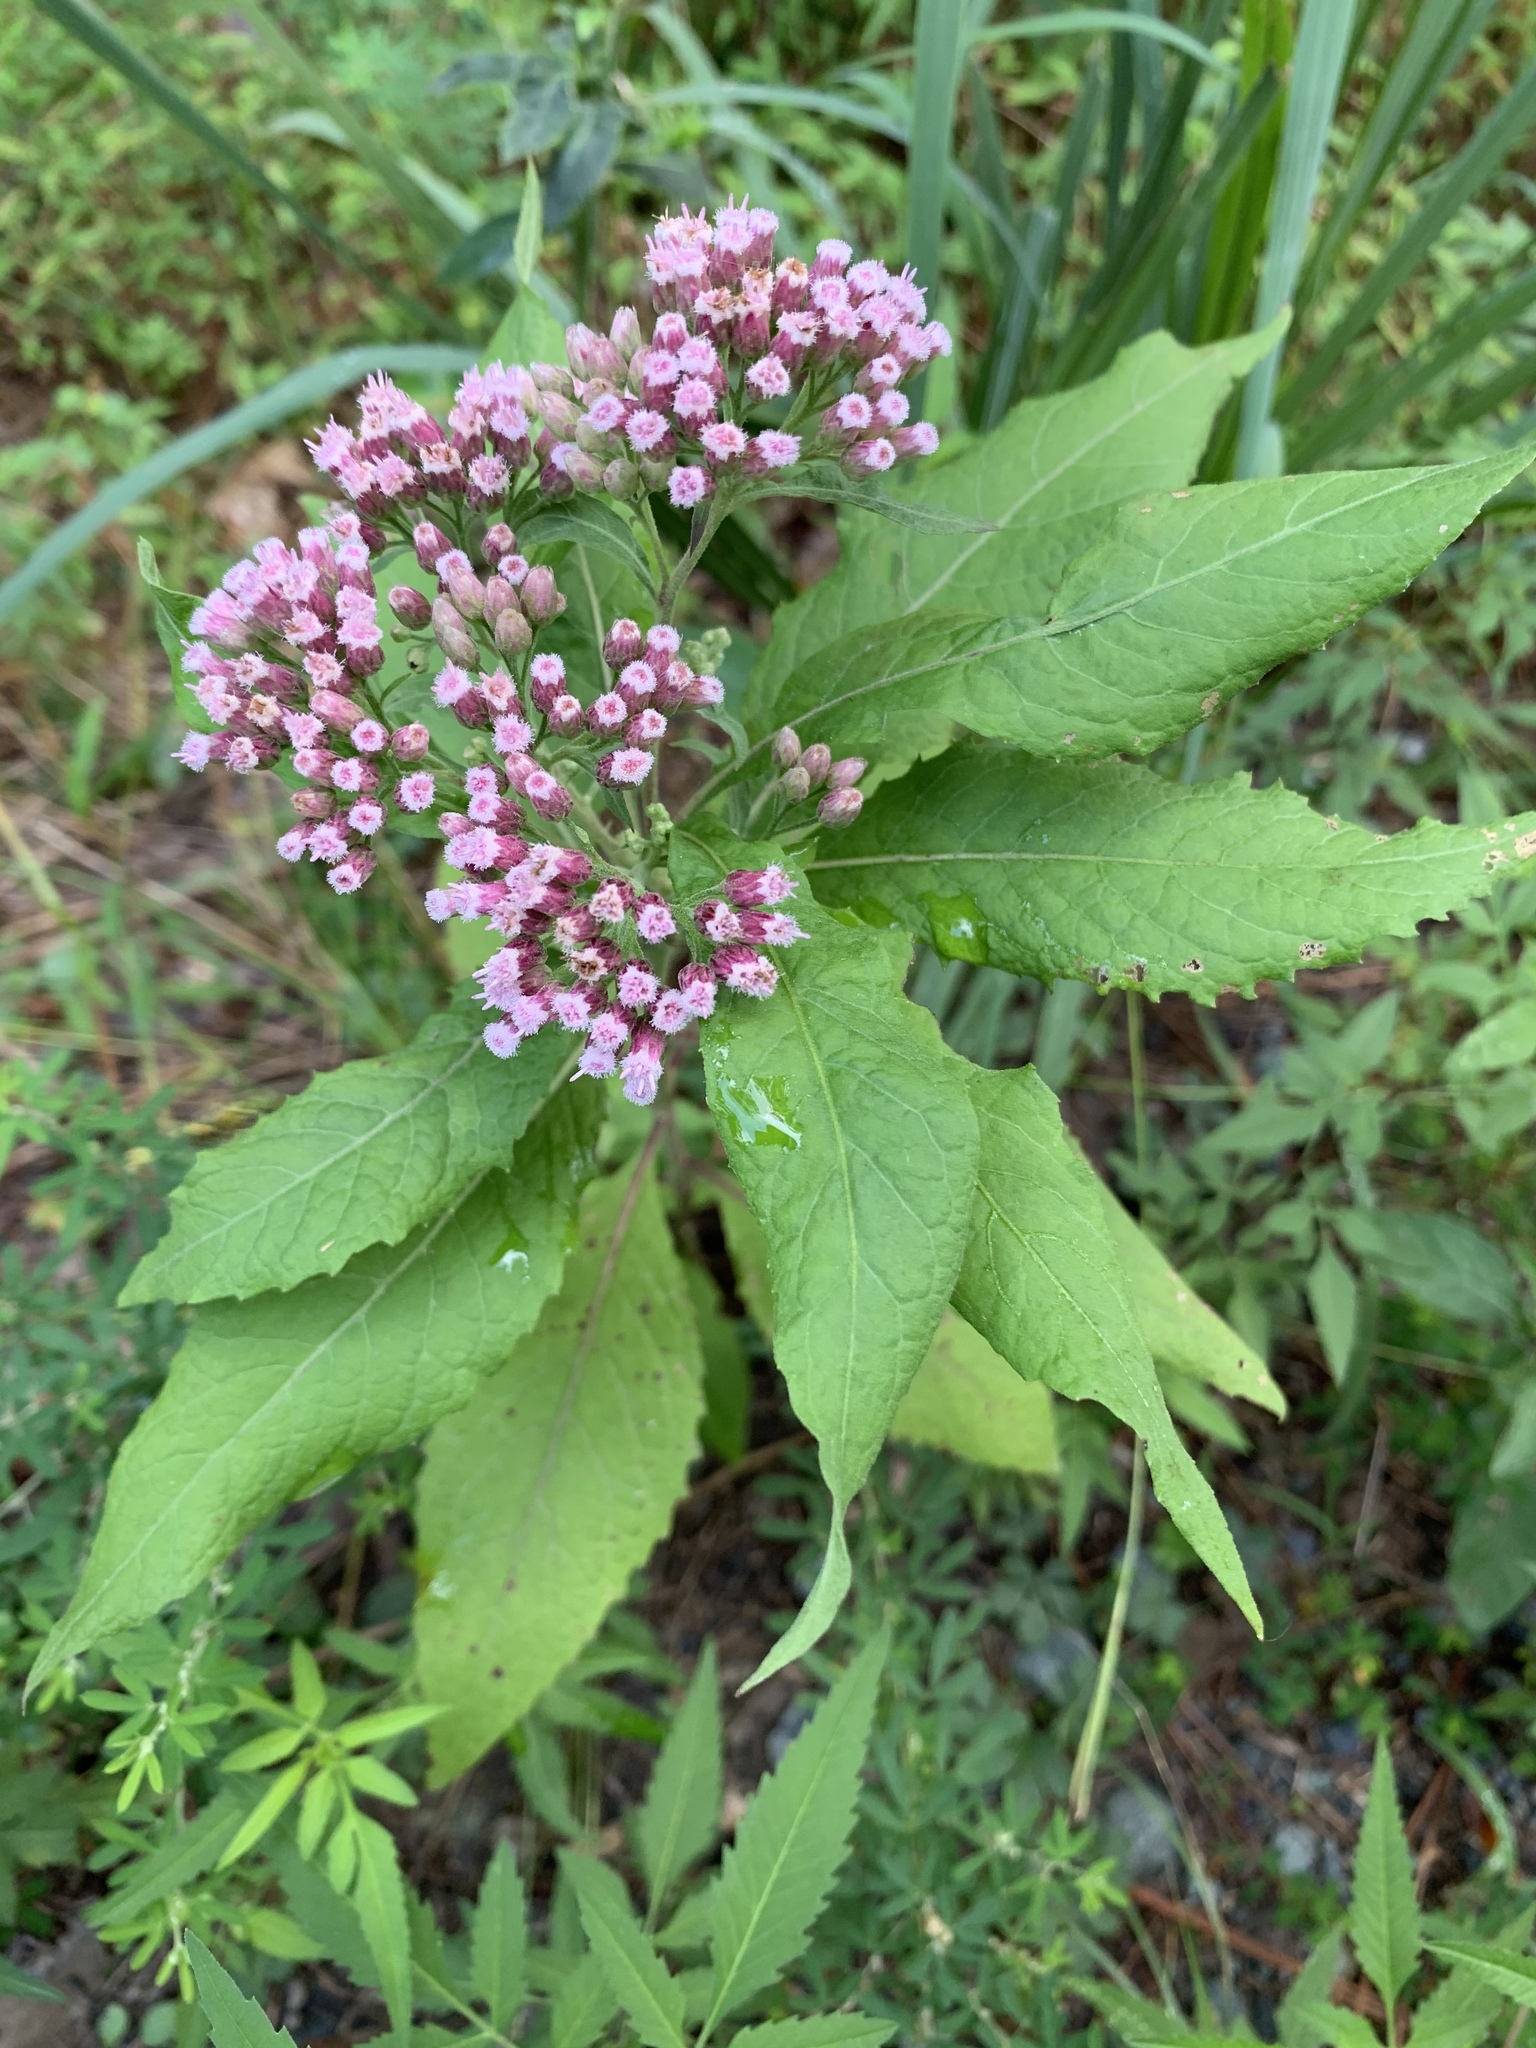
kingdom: Plantae
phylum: Tracheophyta
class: Magnoliopsida
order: Asterales
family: Asteraceae
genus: Pluchea
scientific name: Pluchea camphorata
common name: Camphor pluchea
